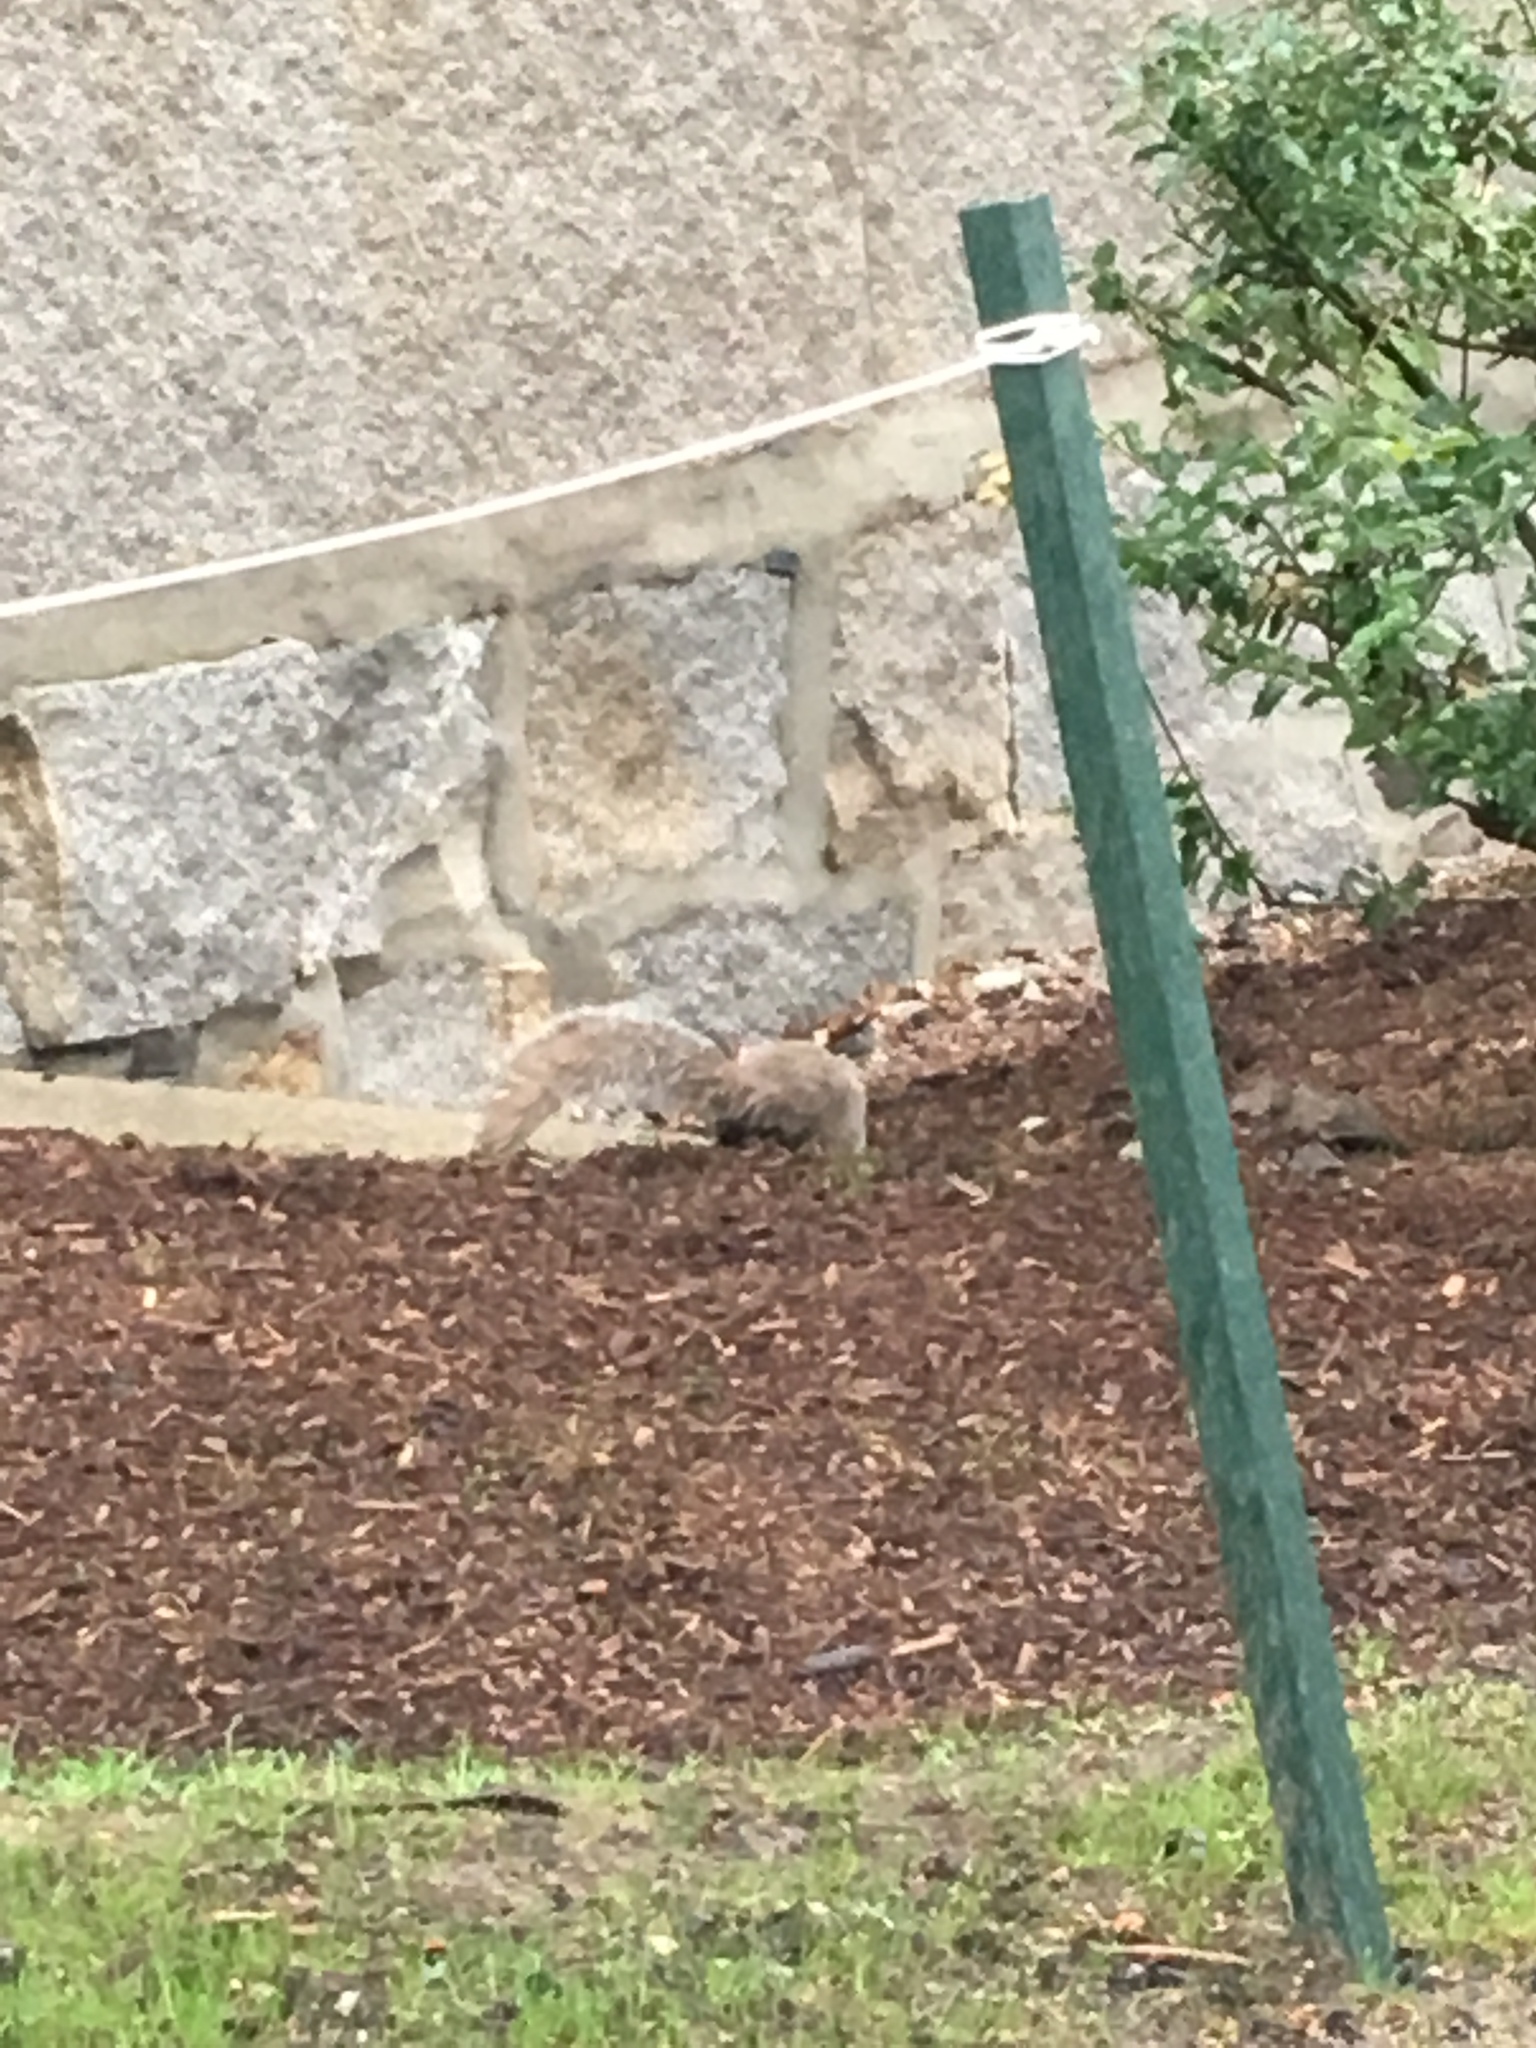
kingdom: Animalia
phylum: Chordata
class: Mammalia
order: Rodentia
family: Sciuridae
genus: Sciurus
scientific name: Sciurus carolinensis
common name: Eastern gray squirrel
